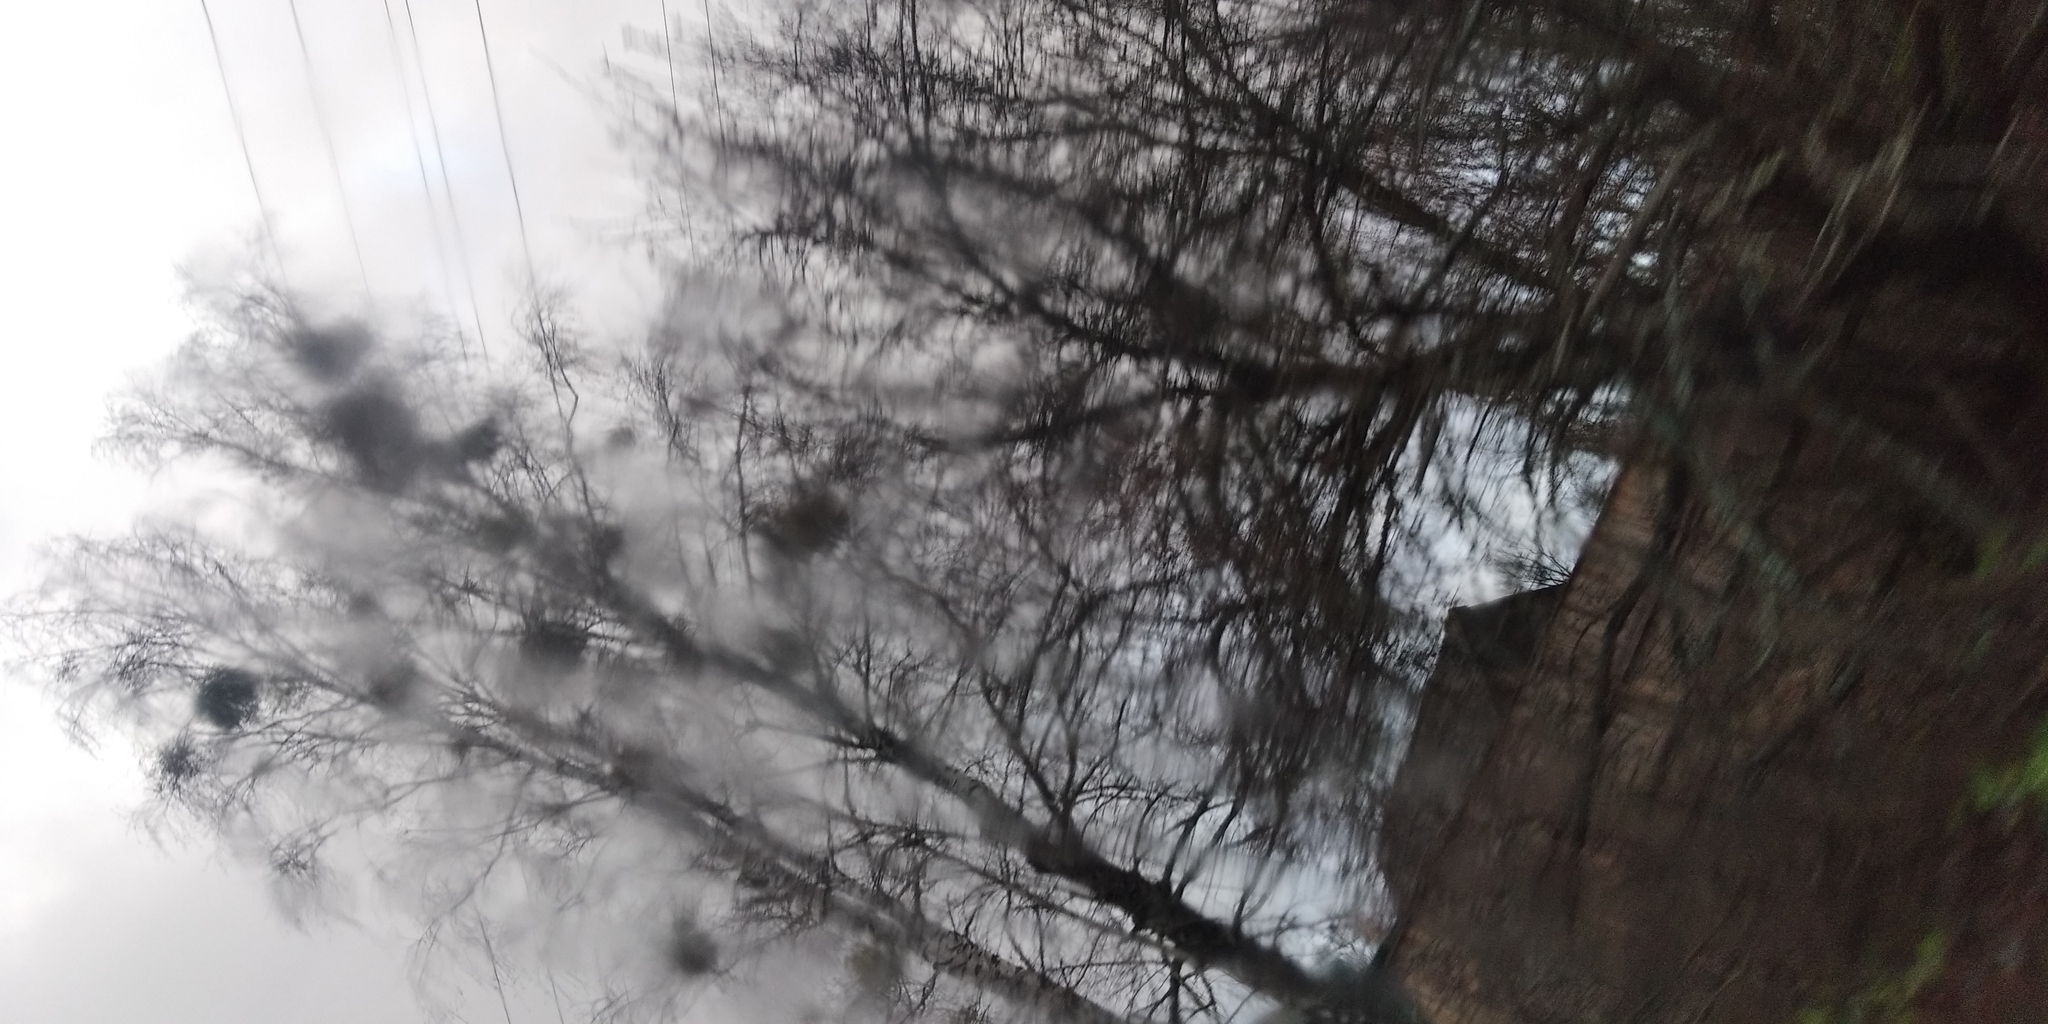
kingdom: Plantae
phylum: Tracheophyta
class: Magnoliopsida
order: Santalales
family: Viscaceae
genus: Viscum
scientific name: Viscum album
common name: Mistletoe
